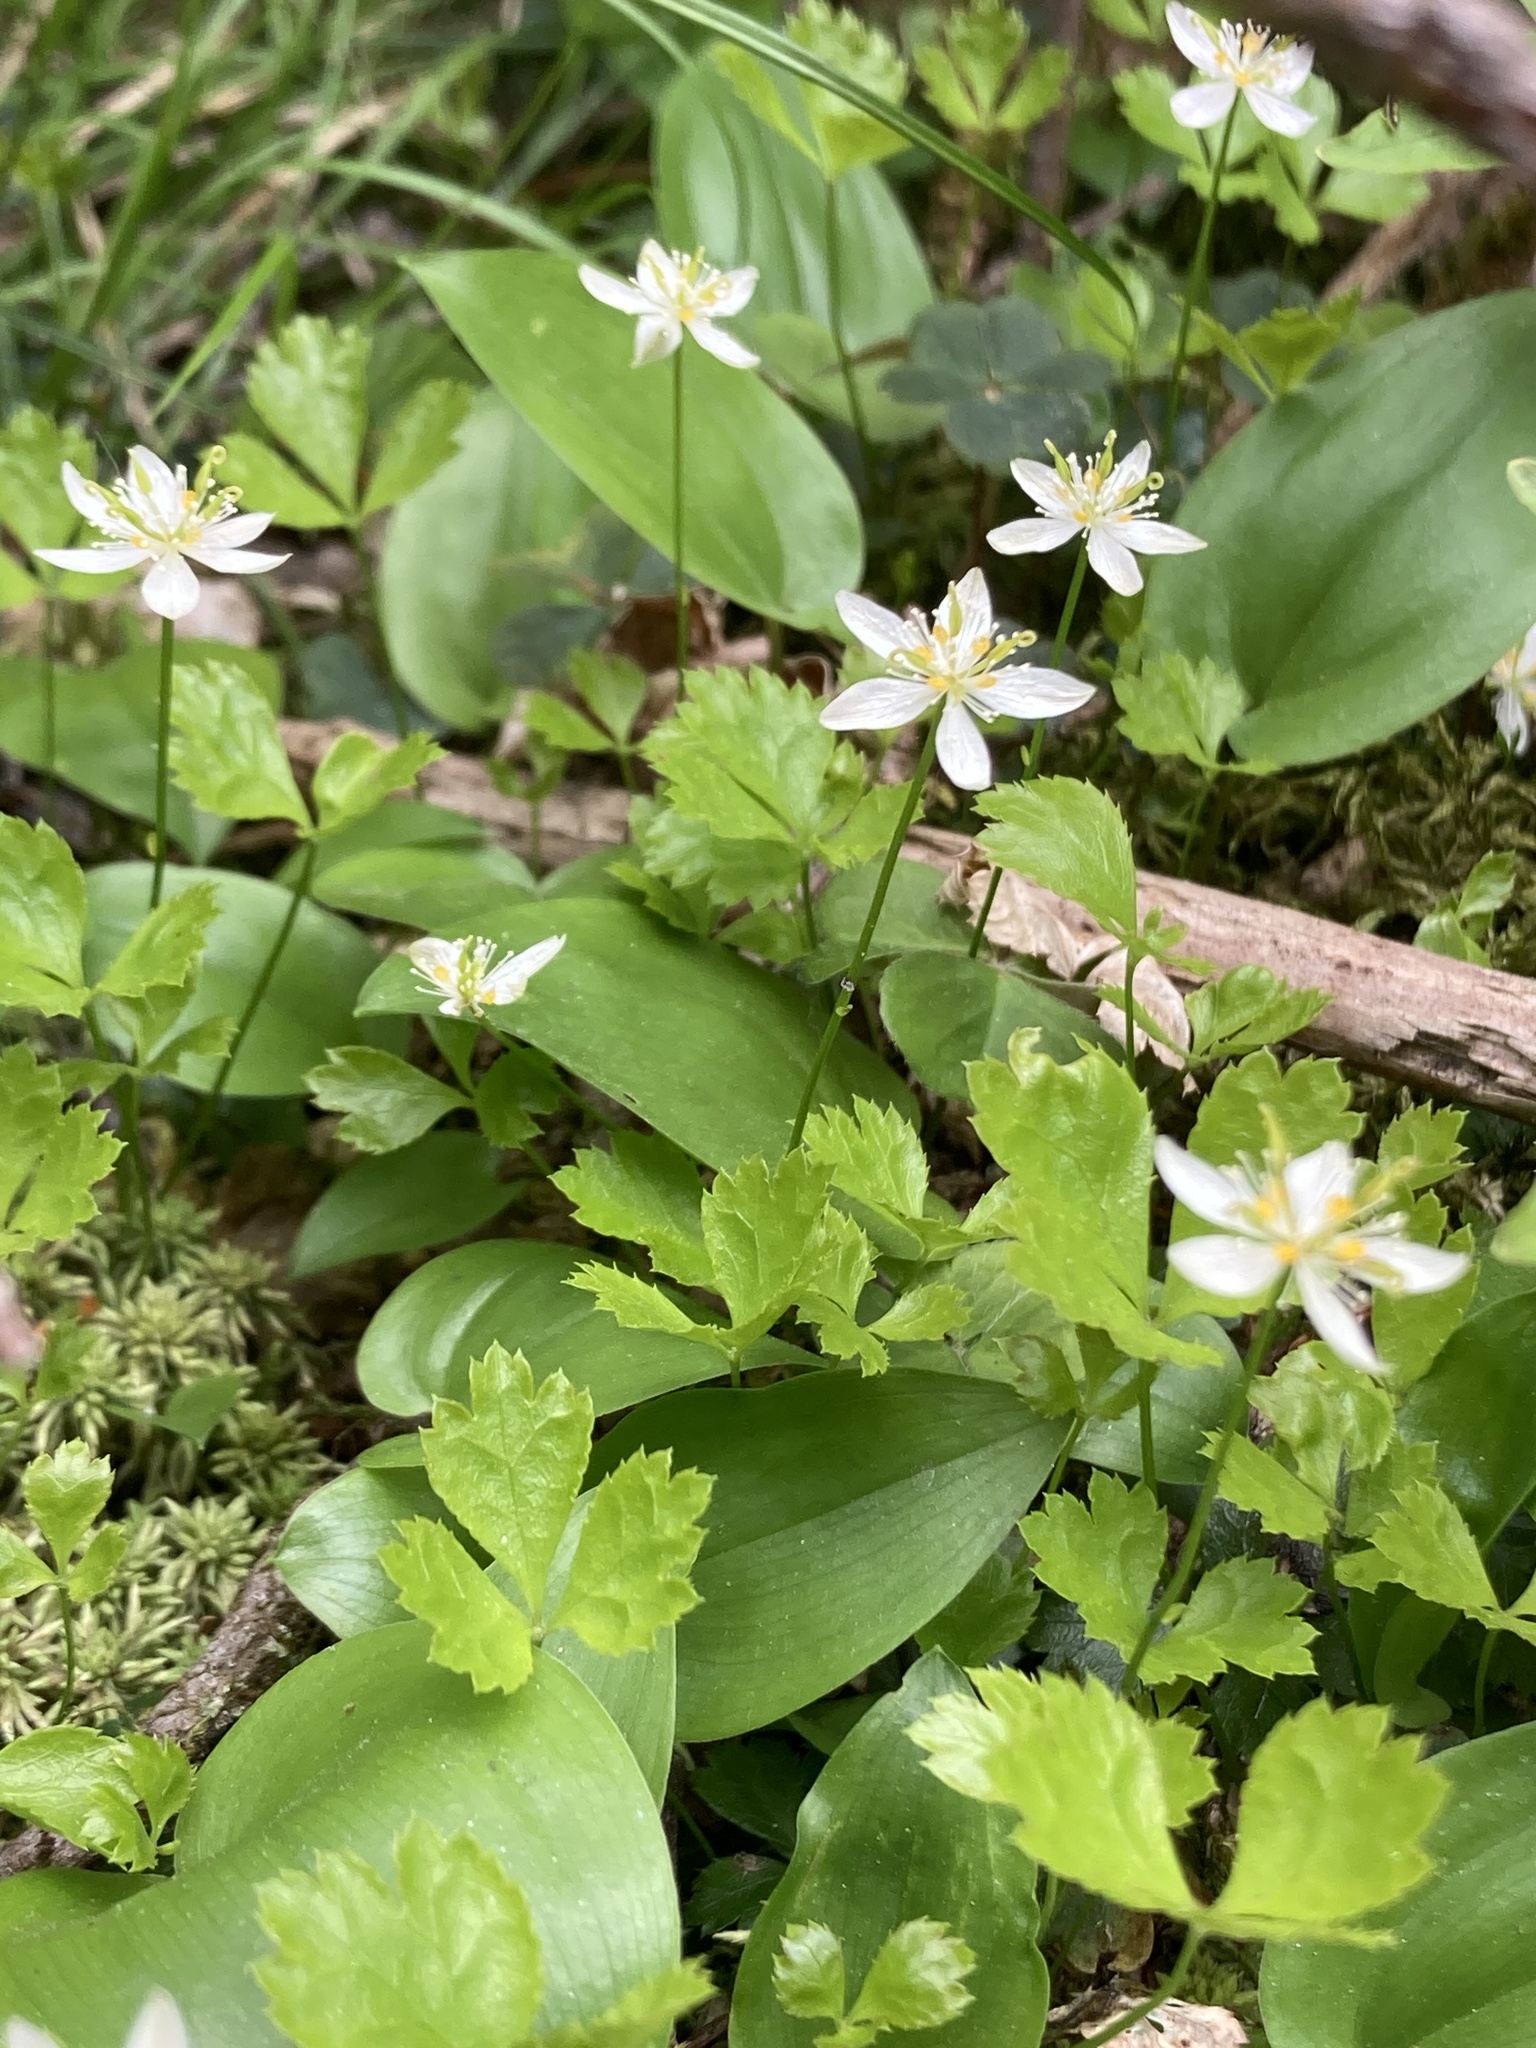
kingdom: Plantae
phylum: Tracheophyta
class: Magnoliopsida
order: Ranunculales
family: Ranunculaceae
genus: Coptis
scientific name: Coptis trifolia
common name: Canker-root
